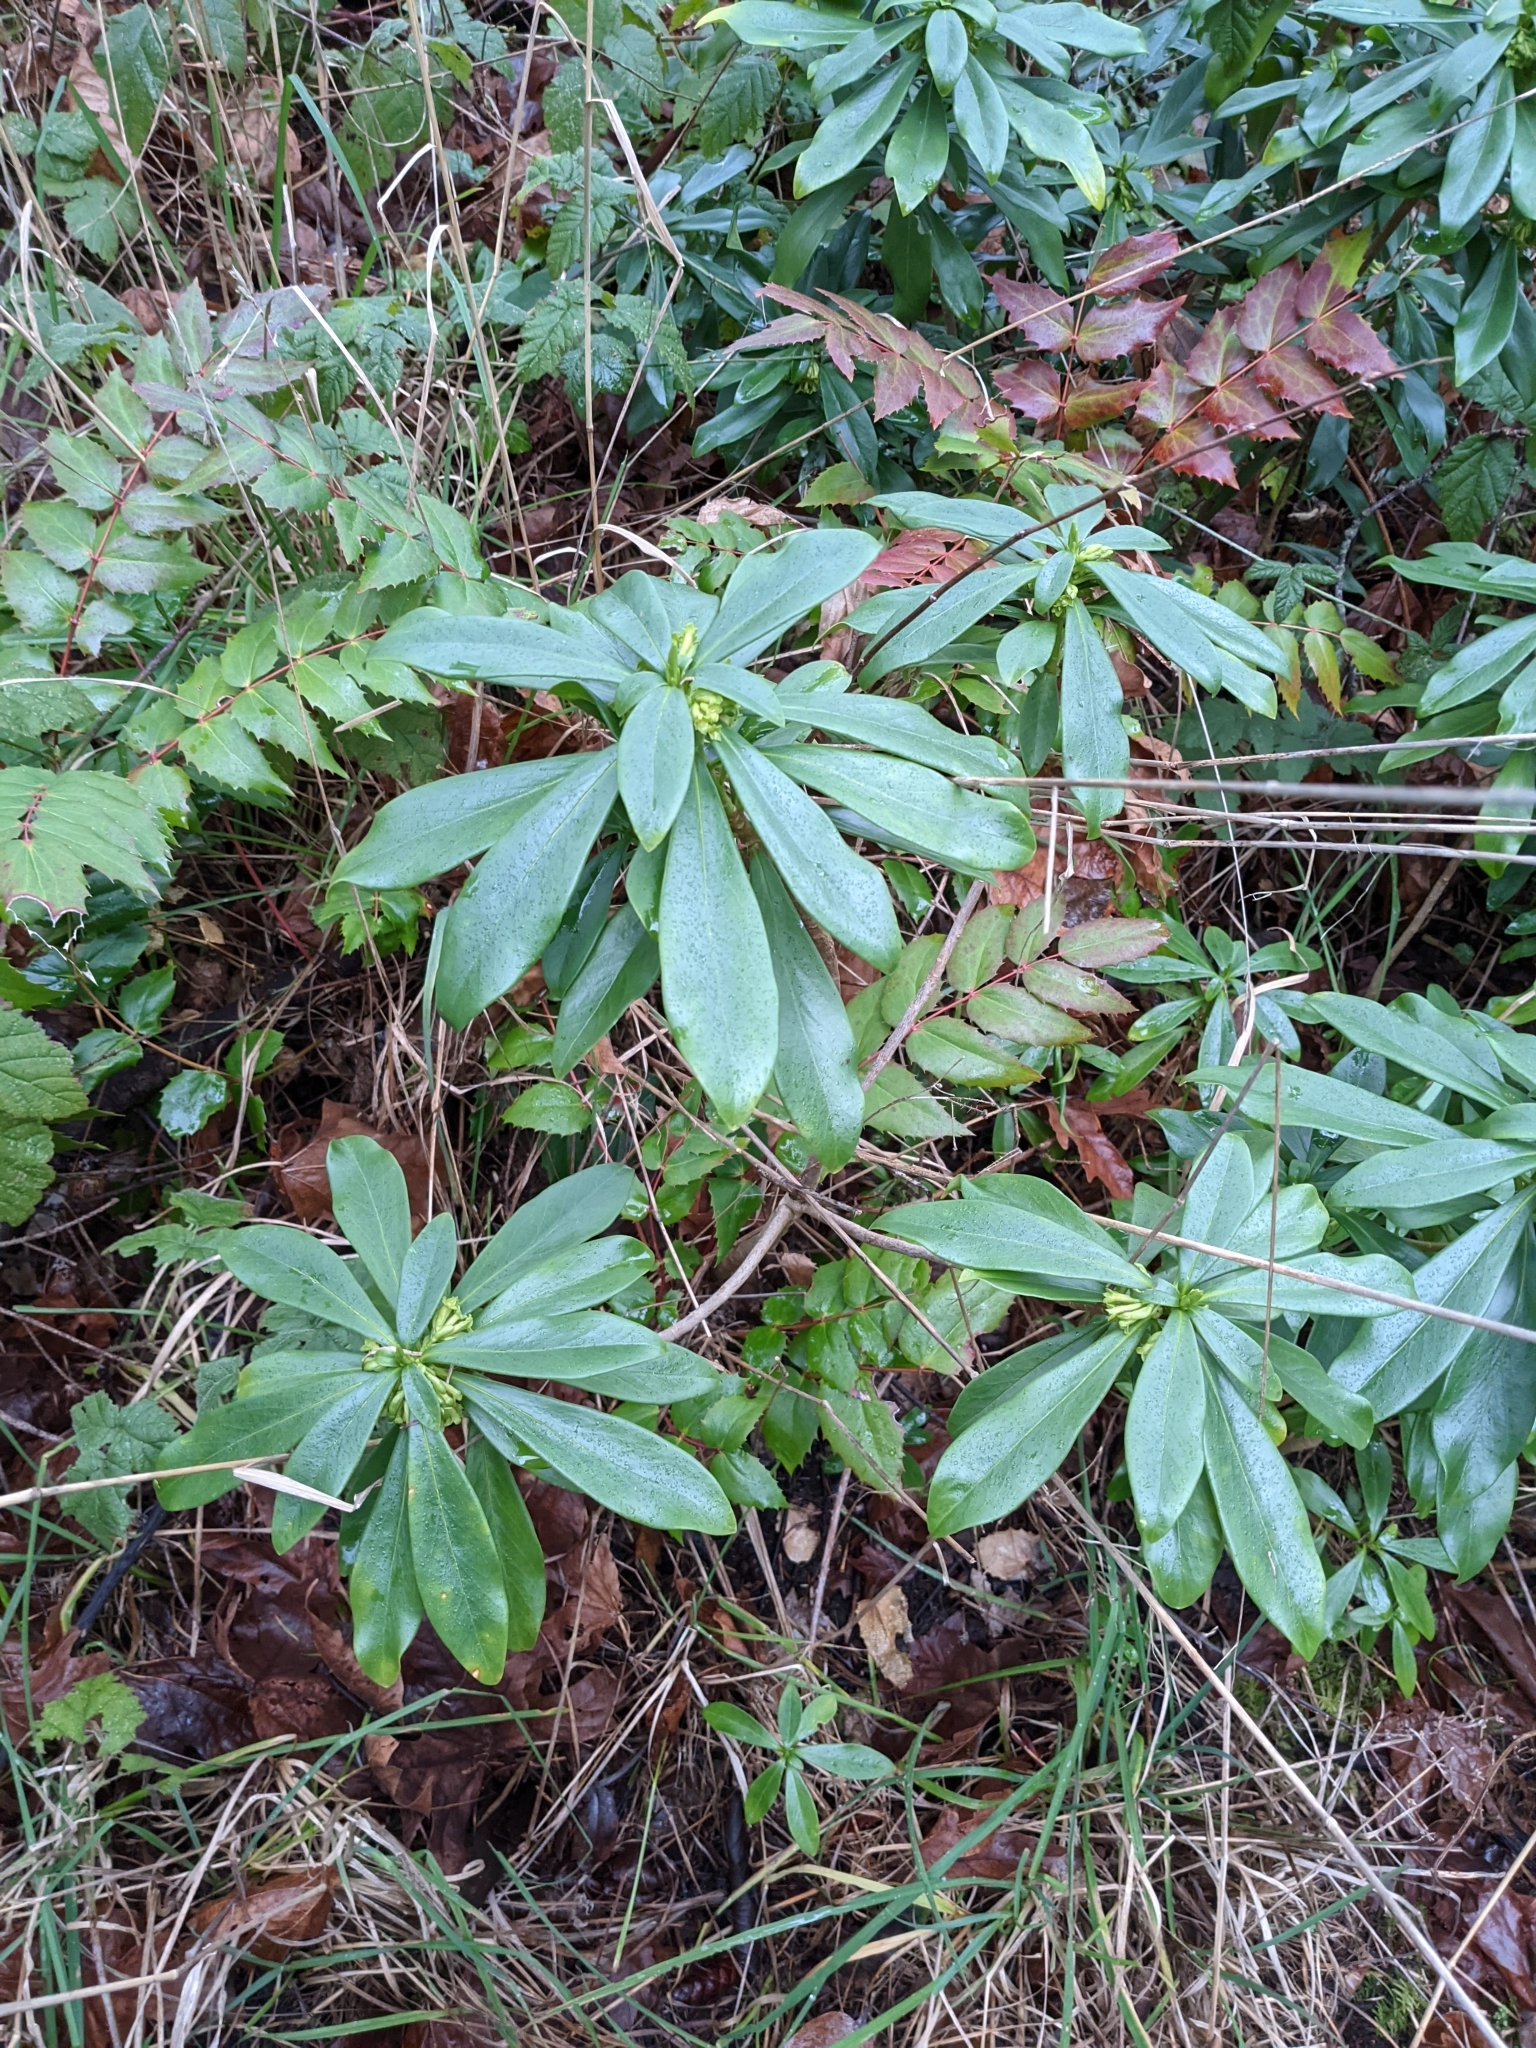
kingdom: Plantae
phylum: Tracheophyta
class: Magnoliopsida
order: Malvales
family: Thymelaeaceae
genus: Daphne
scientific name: Daphne laureola
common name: Spurge-laurel
